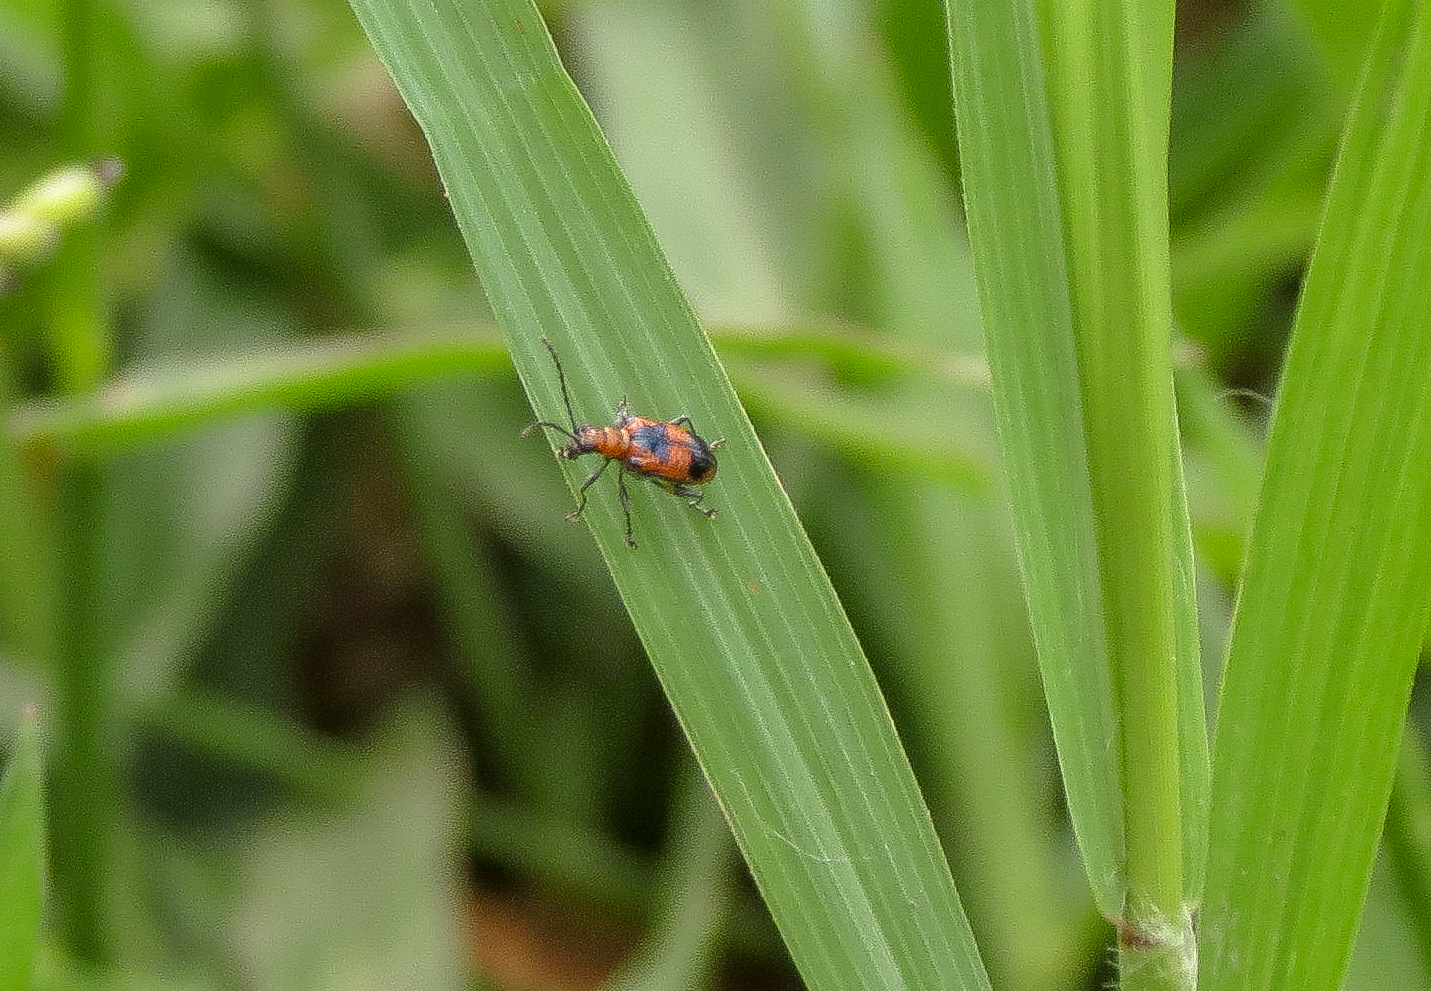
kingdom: Animalia
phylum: Arthropoda
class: Insecta
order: Coleoptera
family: Chrysomelidae
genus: Neolema
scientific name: Neolema dorsalis
